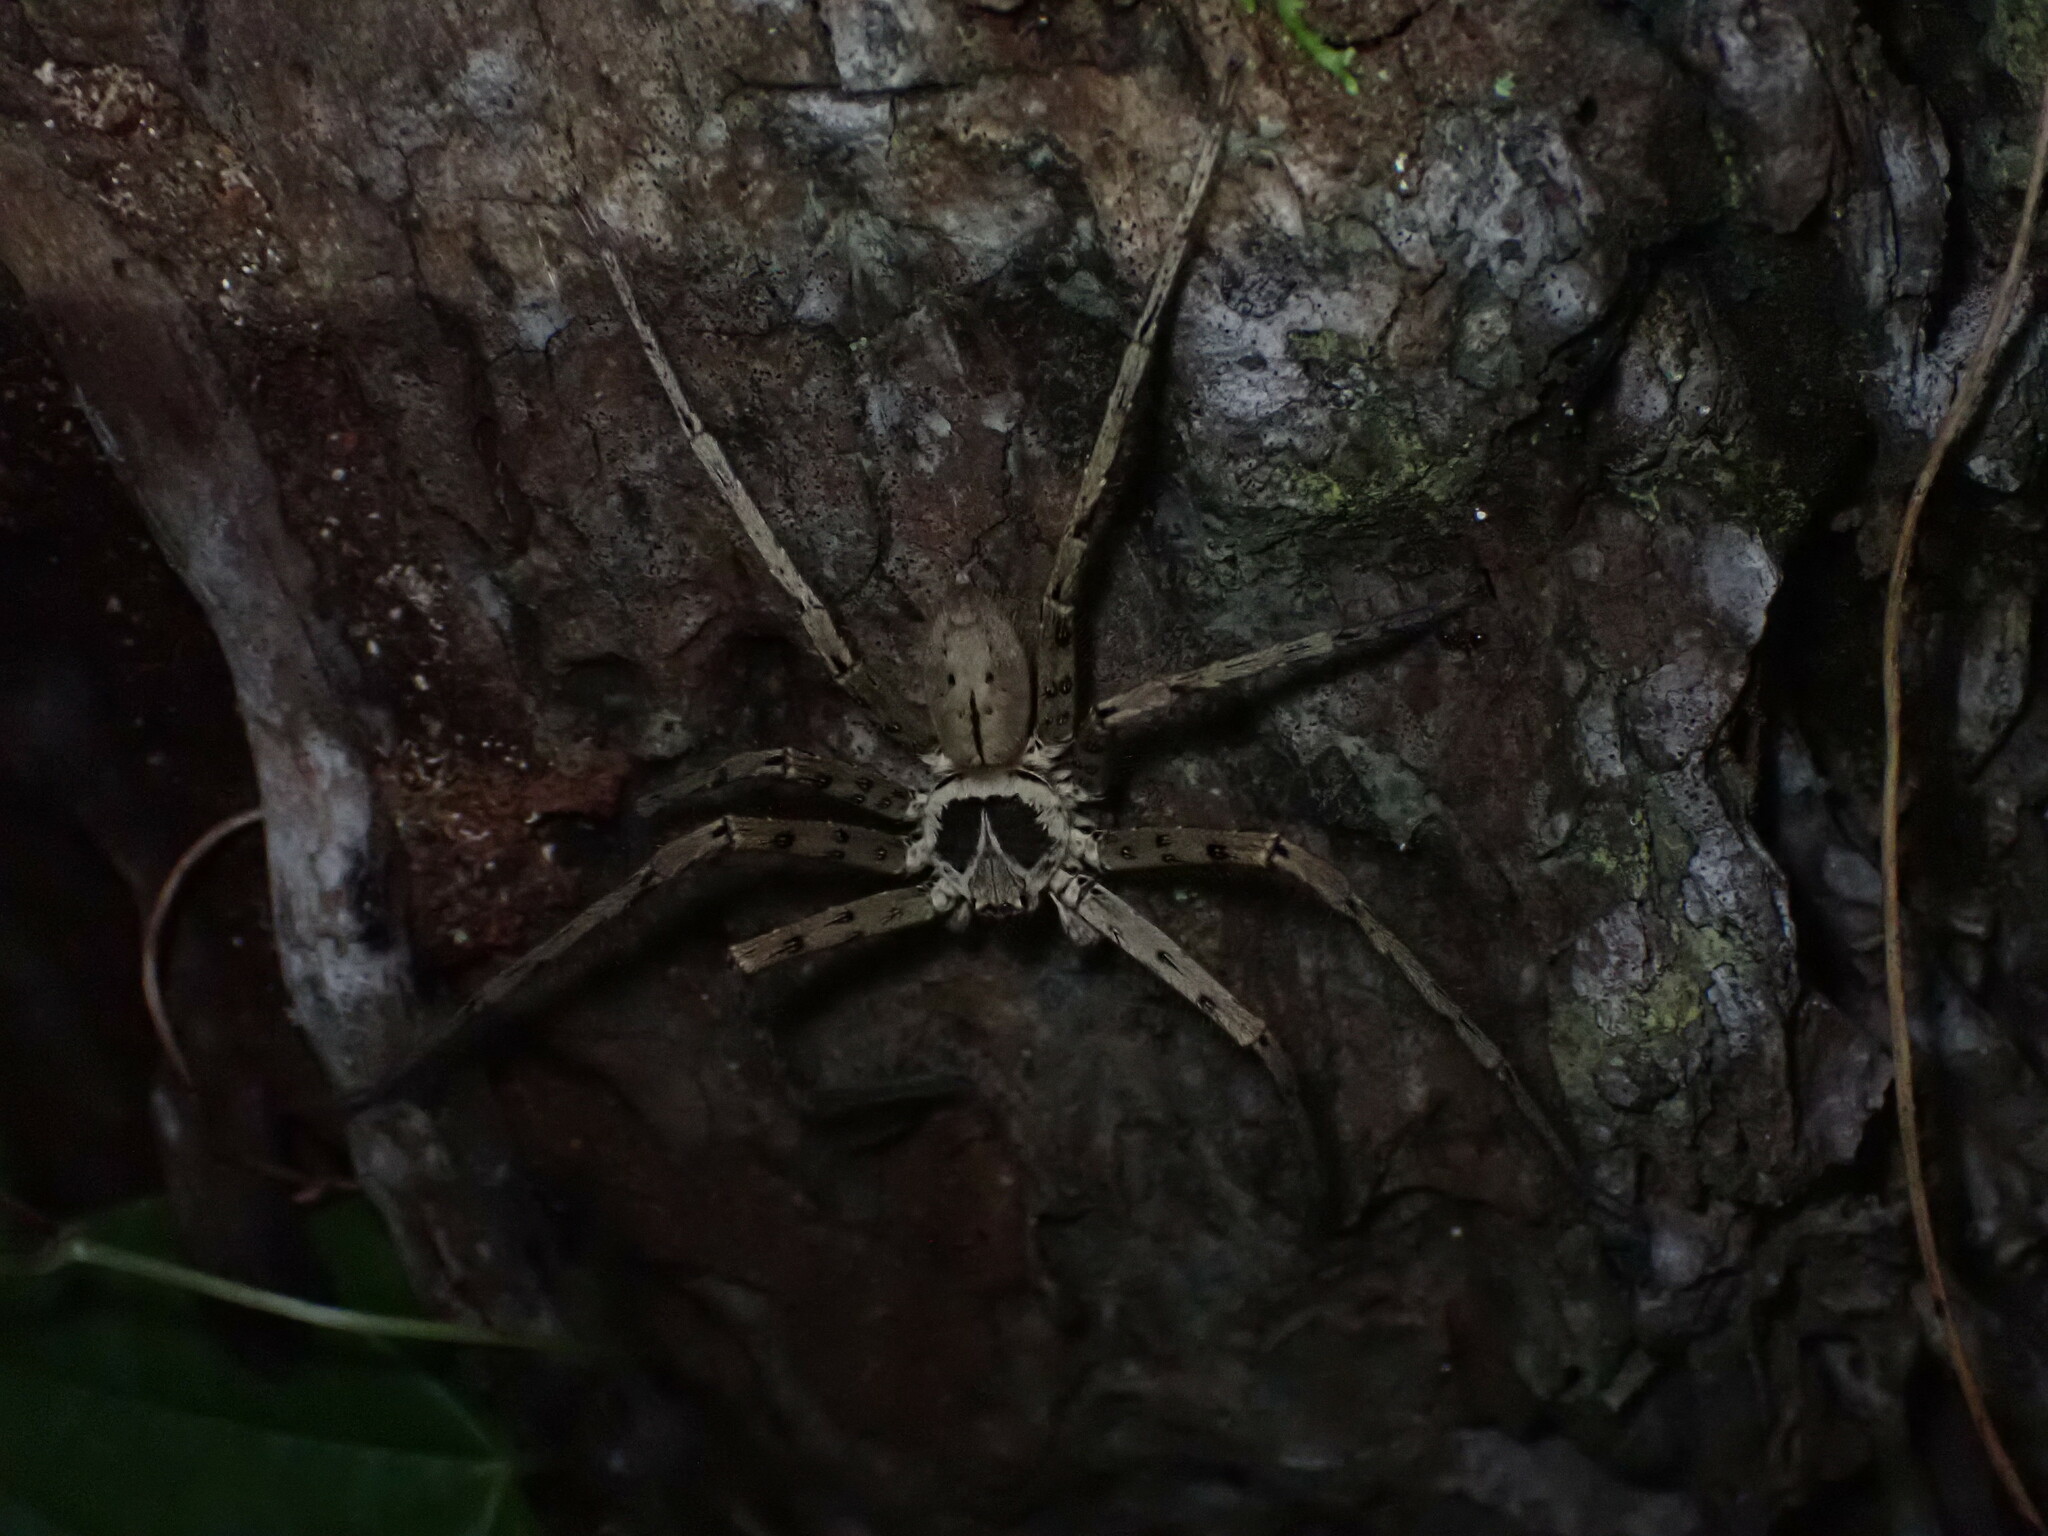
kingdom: Animalia
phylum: Arthropoda
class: Arachnida
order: Araneae
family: Sparassidae
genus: Heteropoda
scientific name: Heteropoda venatoria
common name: Huntsman spider
